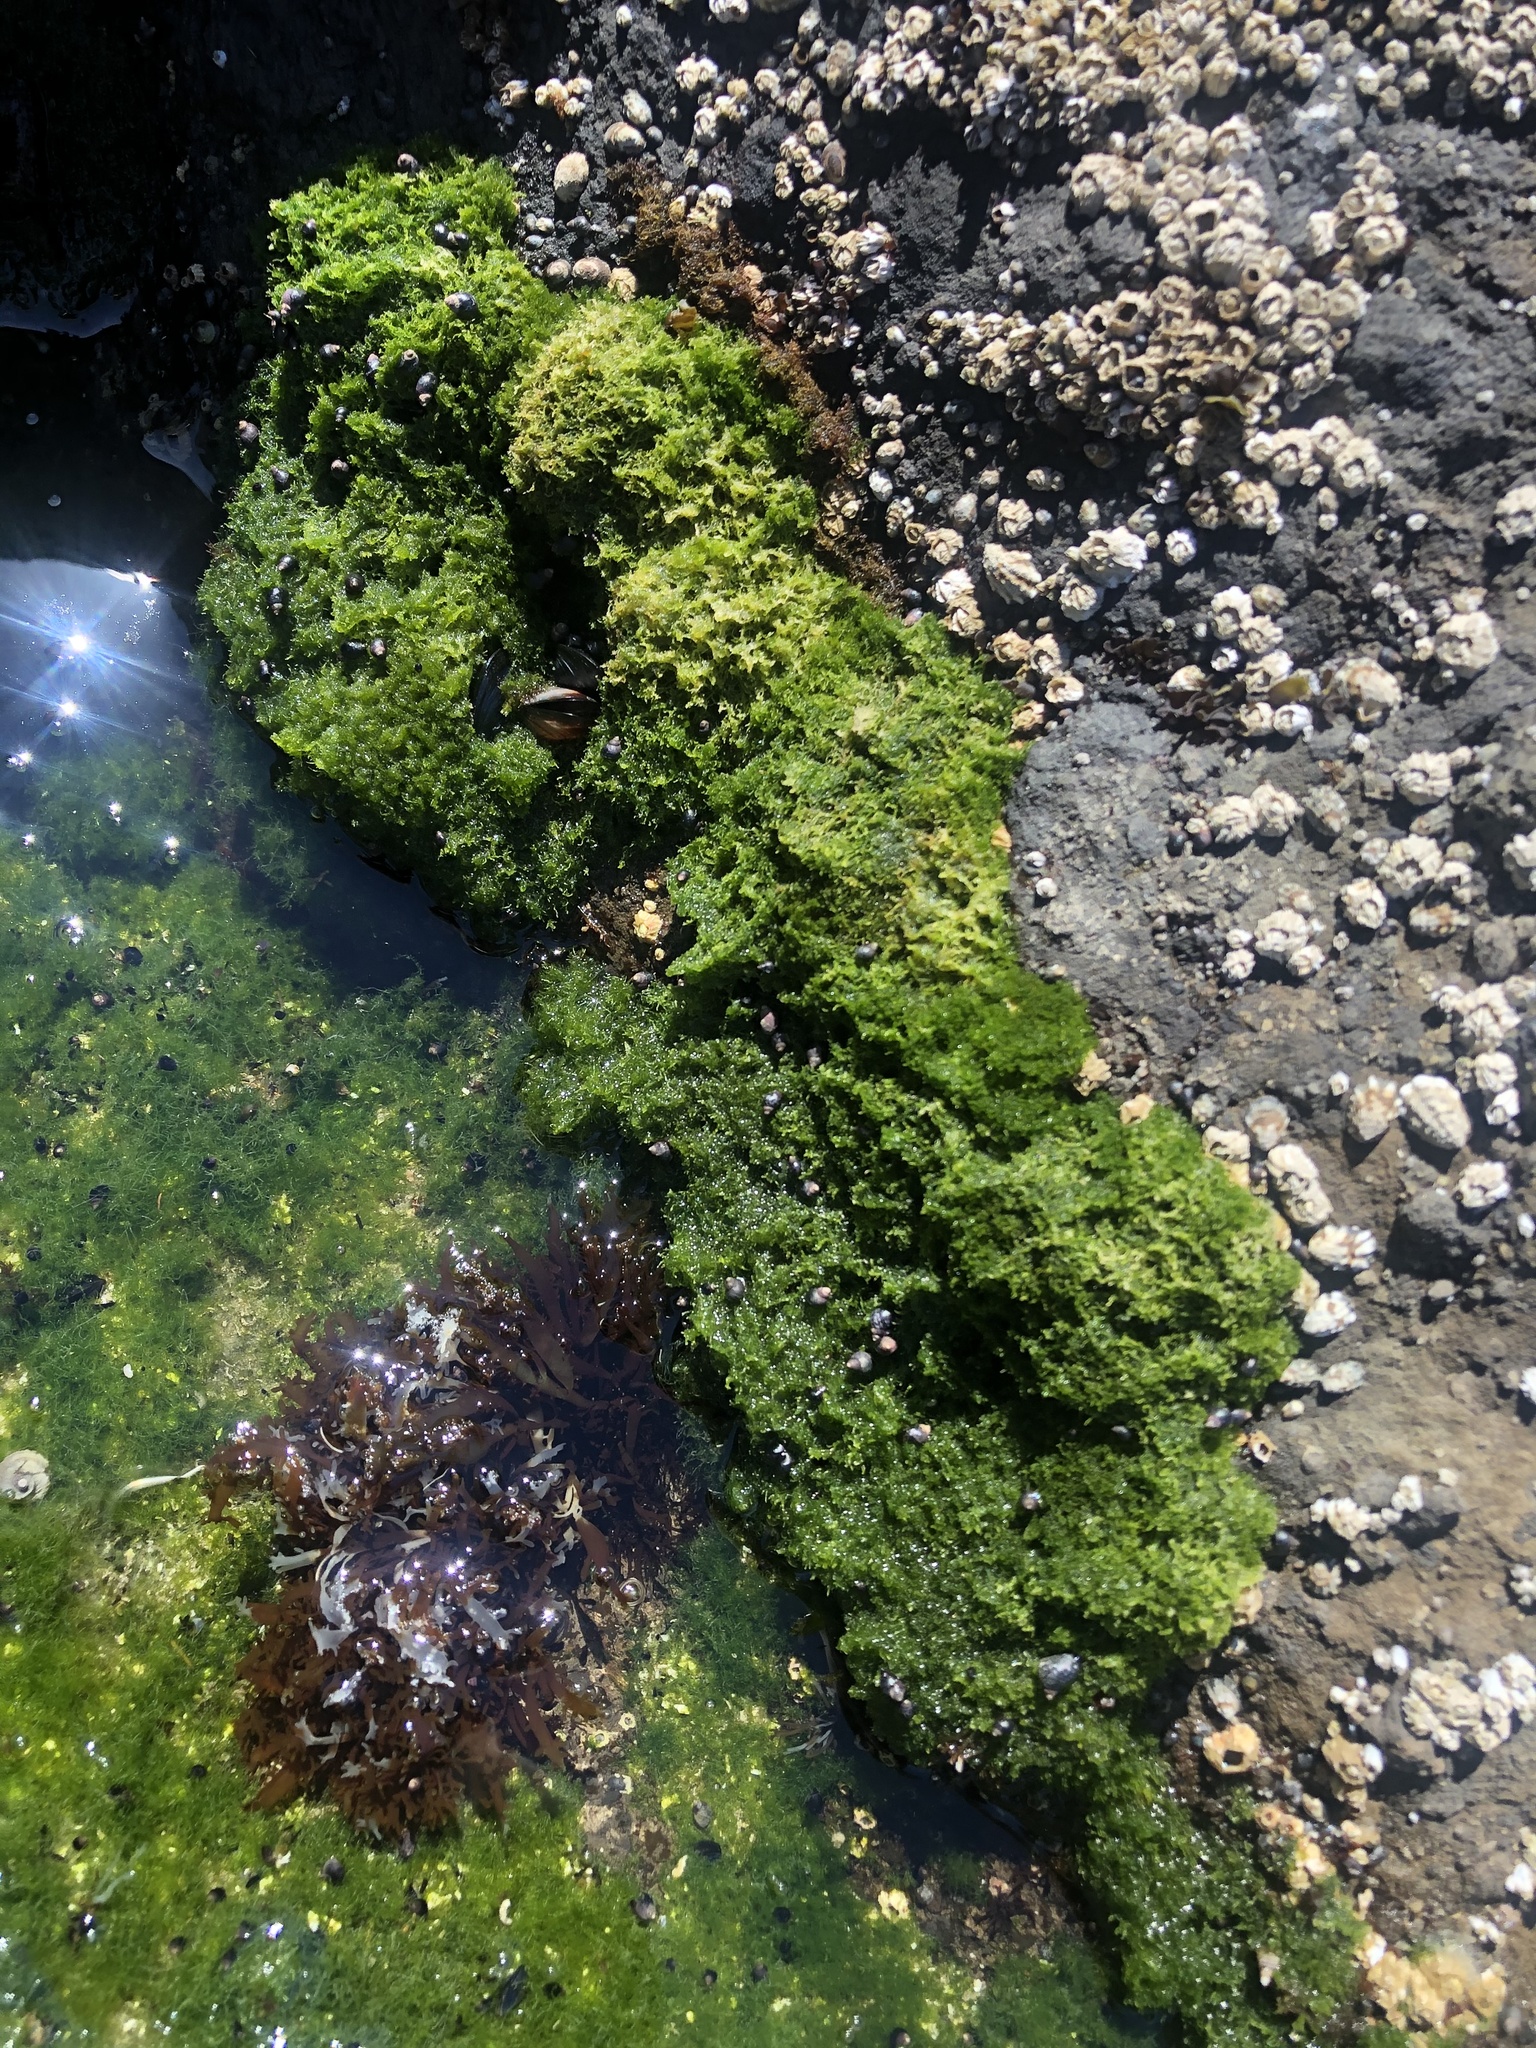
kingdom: Plantae
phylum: Chlorophyta
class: Ulvophyceae
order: Cladophorales
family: Cladophoraceae
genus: Cladophora
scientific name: Cladophora columbiana
